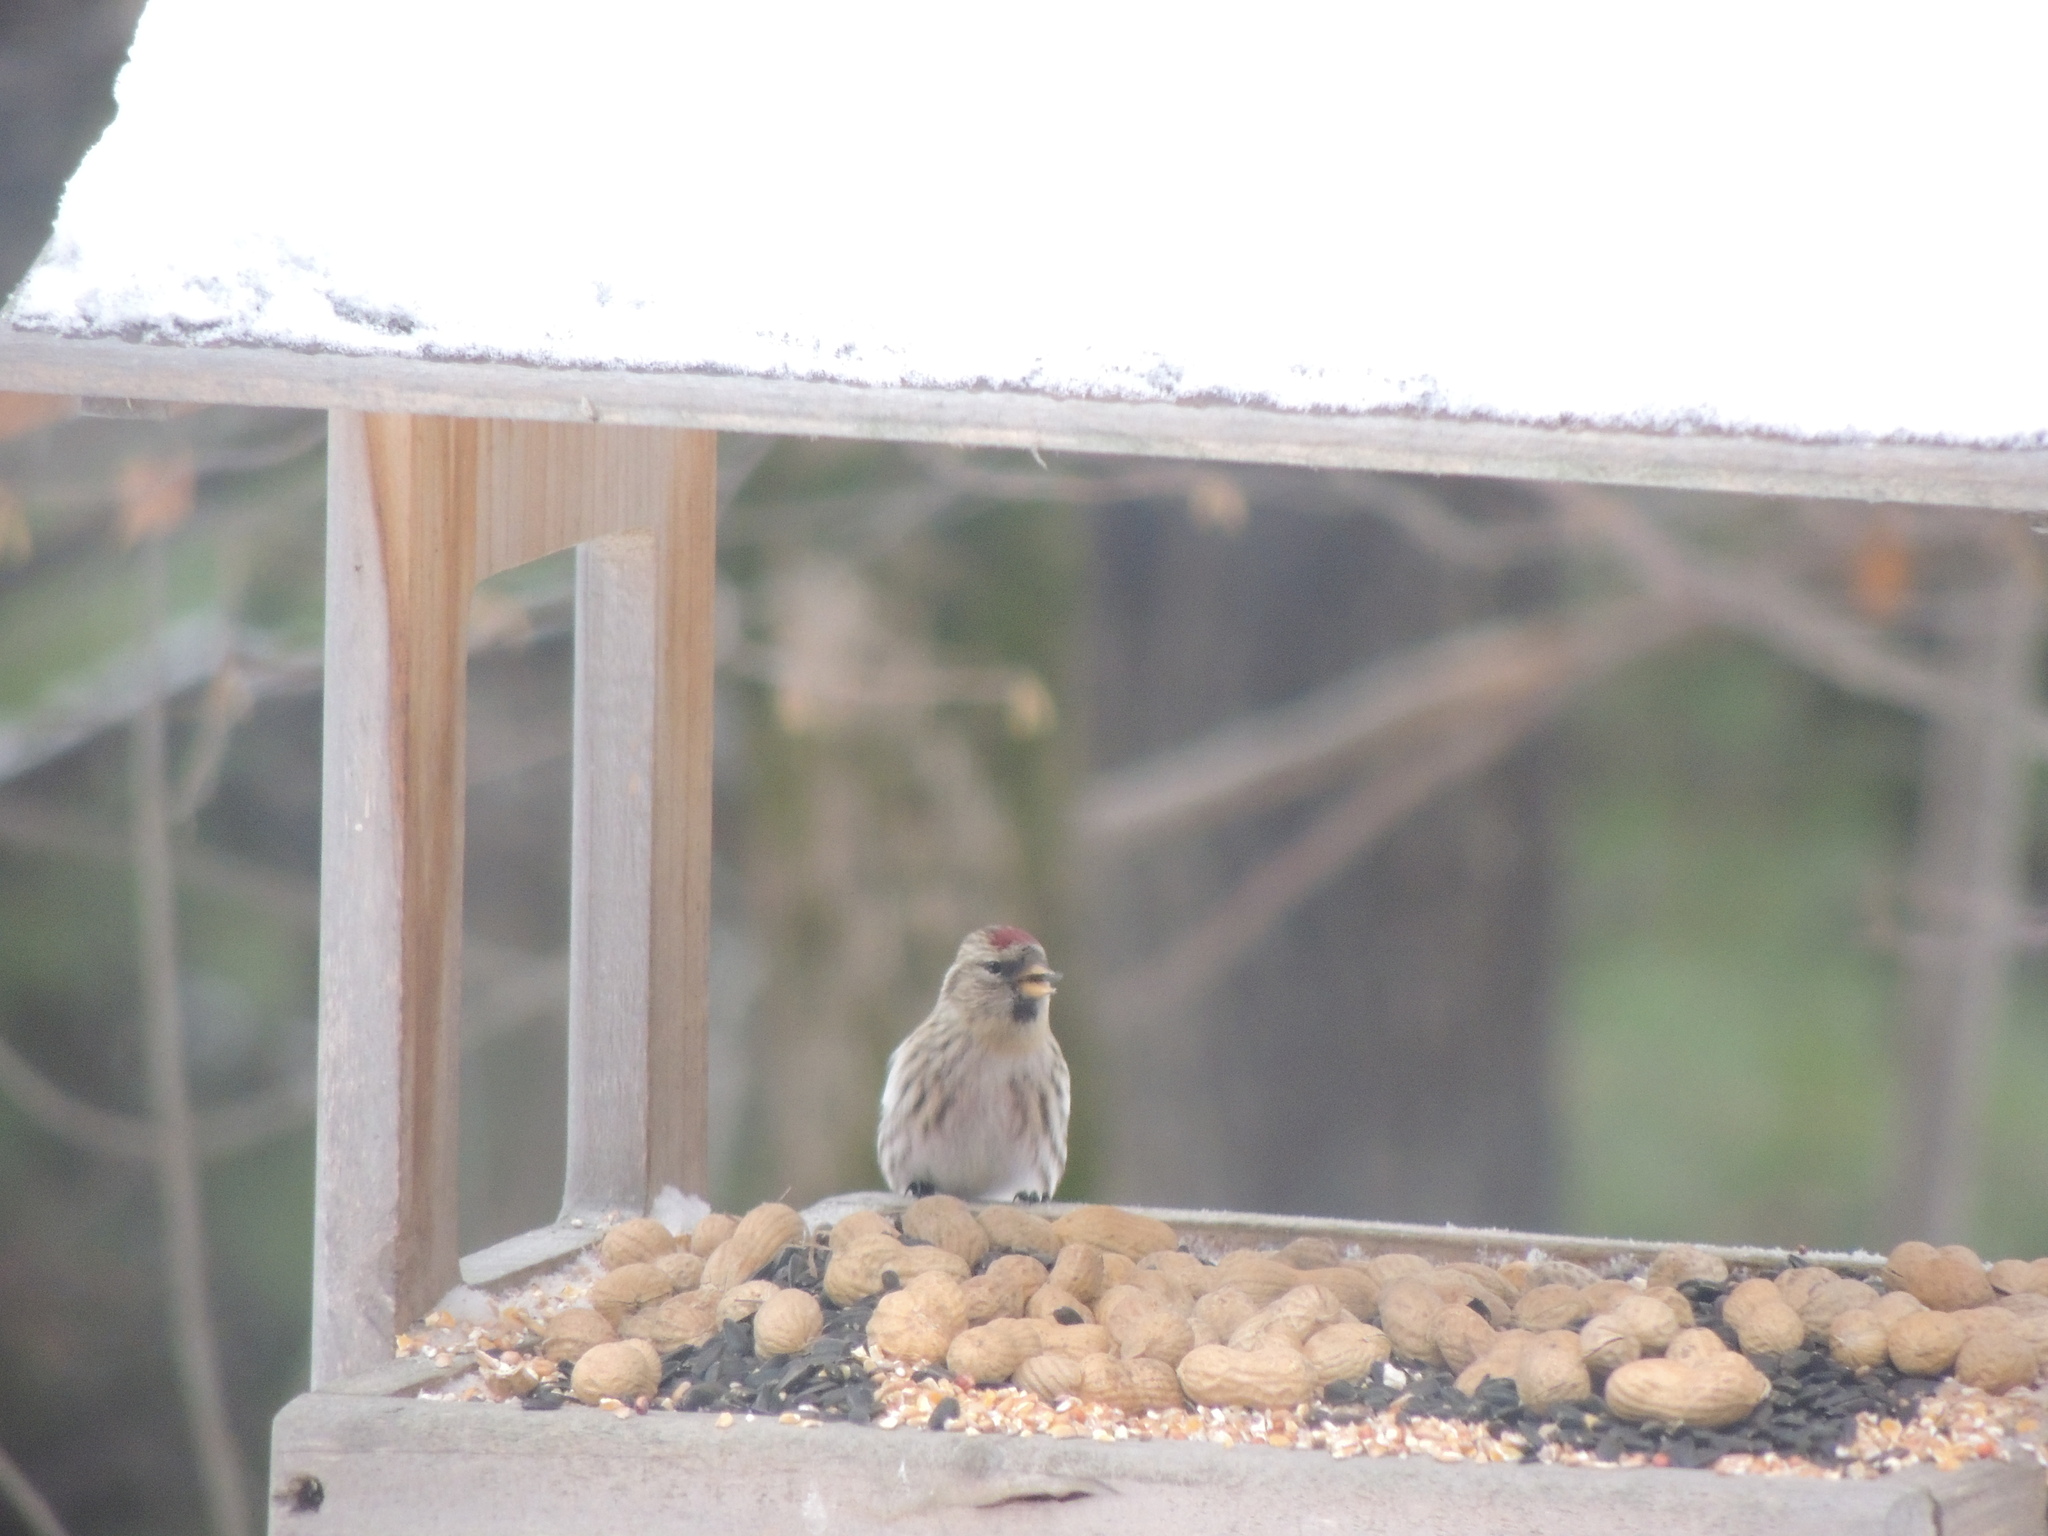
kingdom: Animalia
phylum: Chordata
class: Aves
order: Passeriformes
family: Fringillidae
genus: Acanthis
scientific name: Acanthis flammea
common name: Common redpoll
